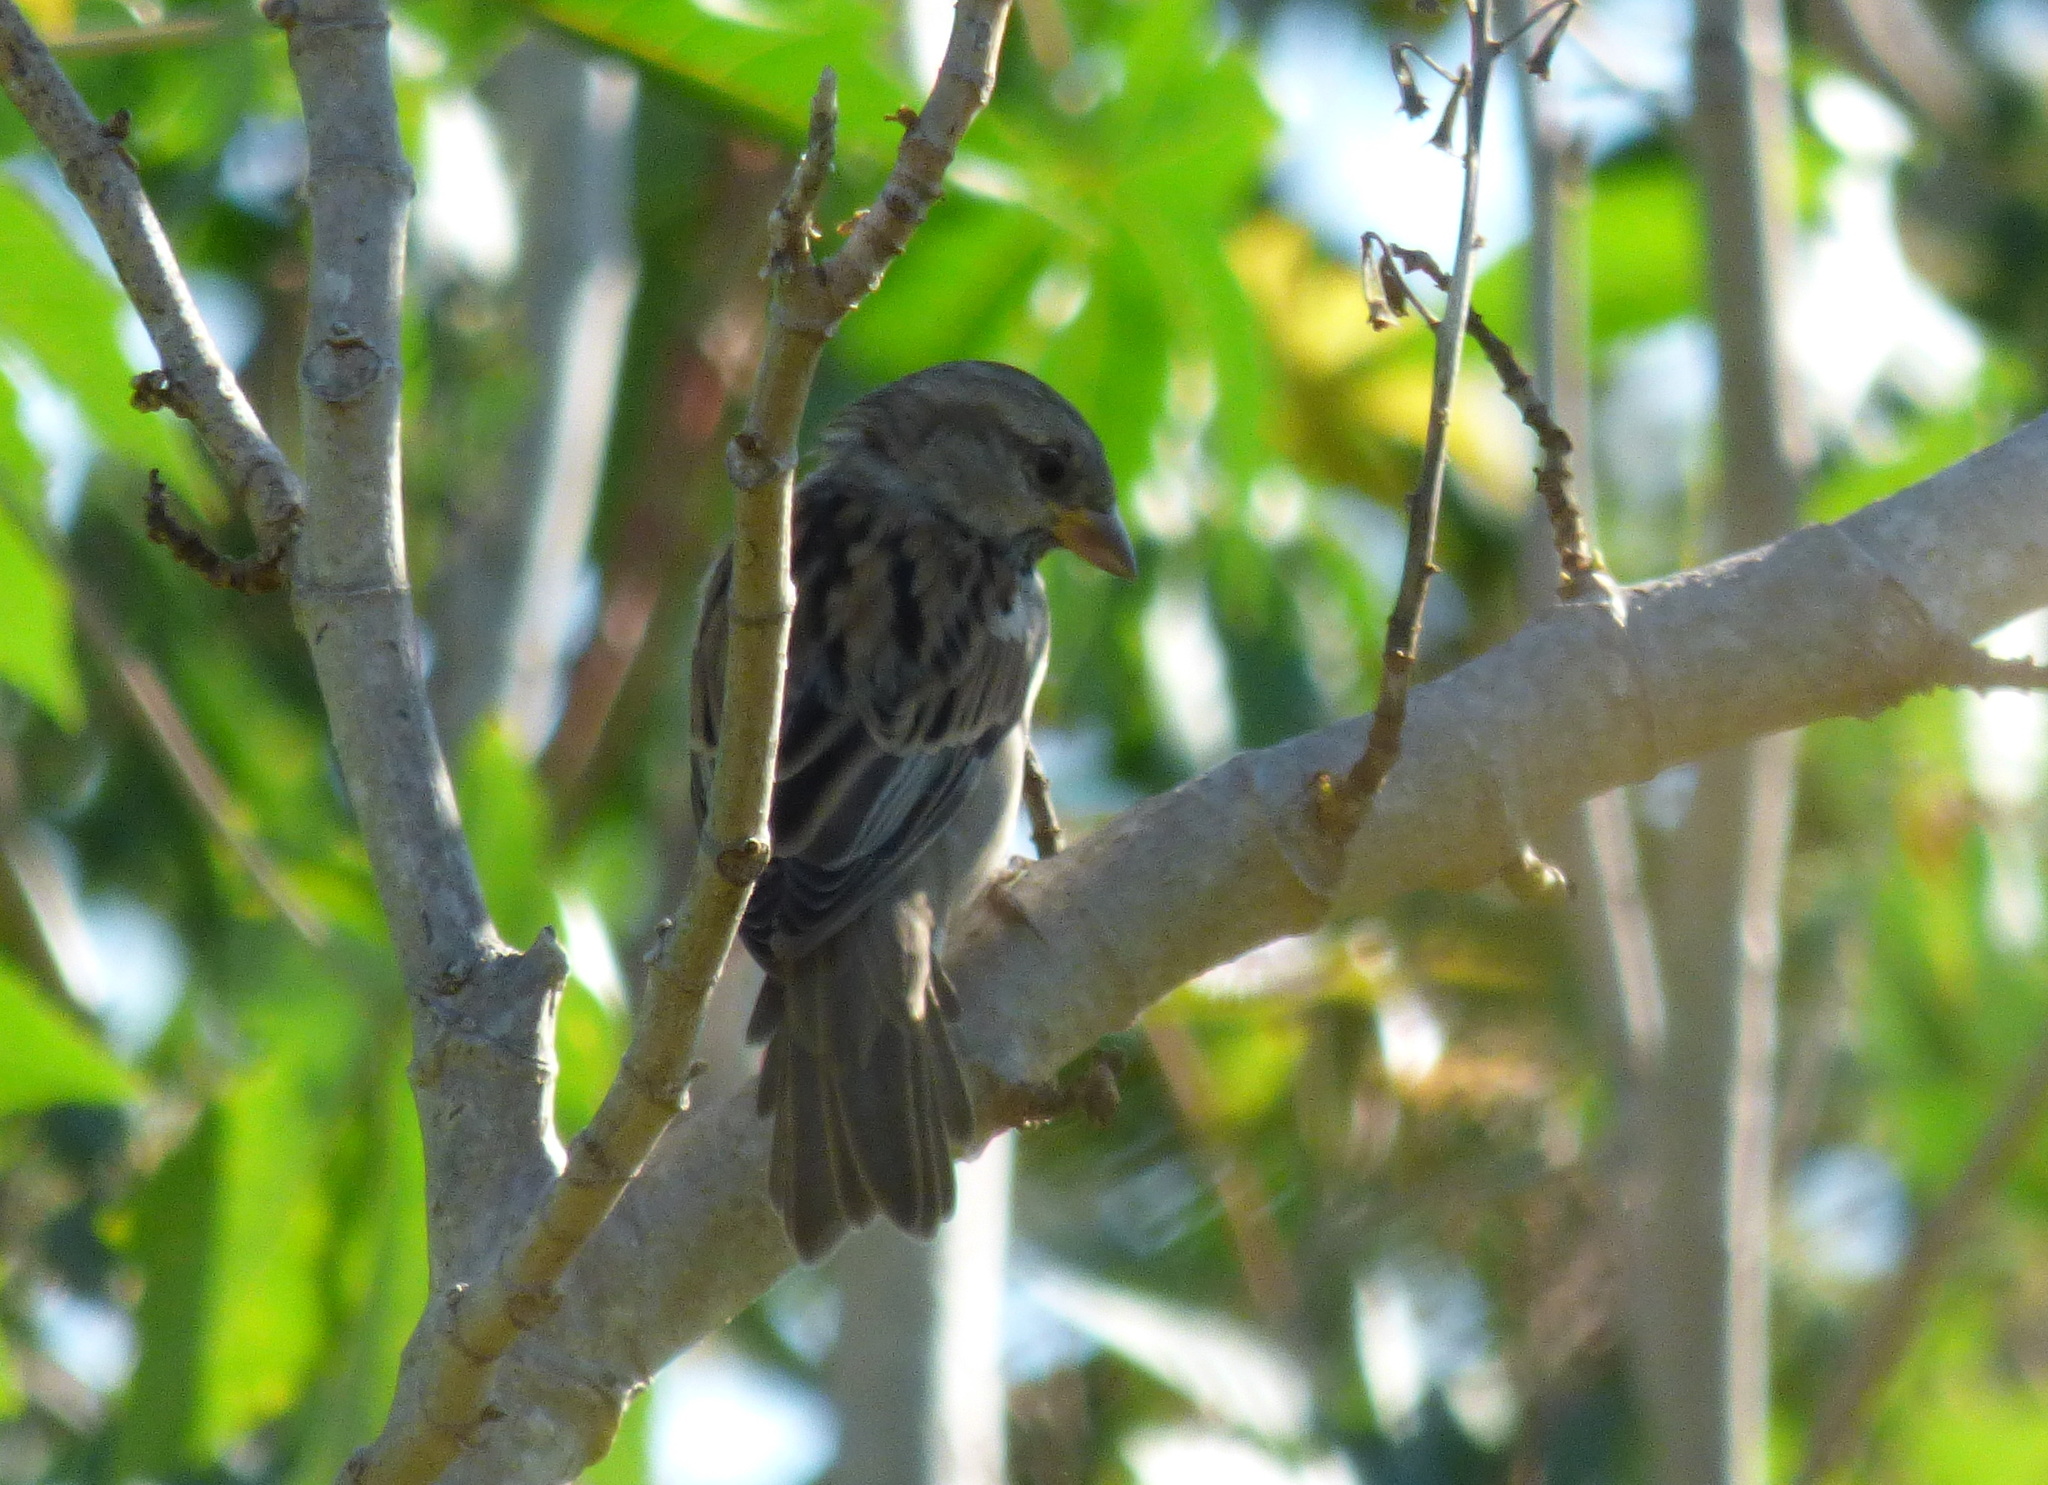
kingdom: Animalia
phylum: Chordata
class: Aves
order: Passeriformes
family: Passeridae
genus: Passer
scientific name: Passer domesticus
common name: House sparrow
